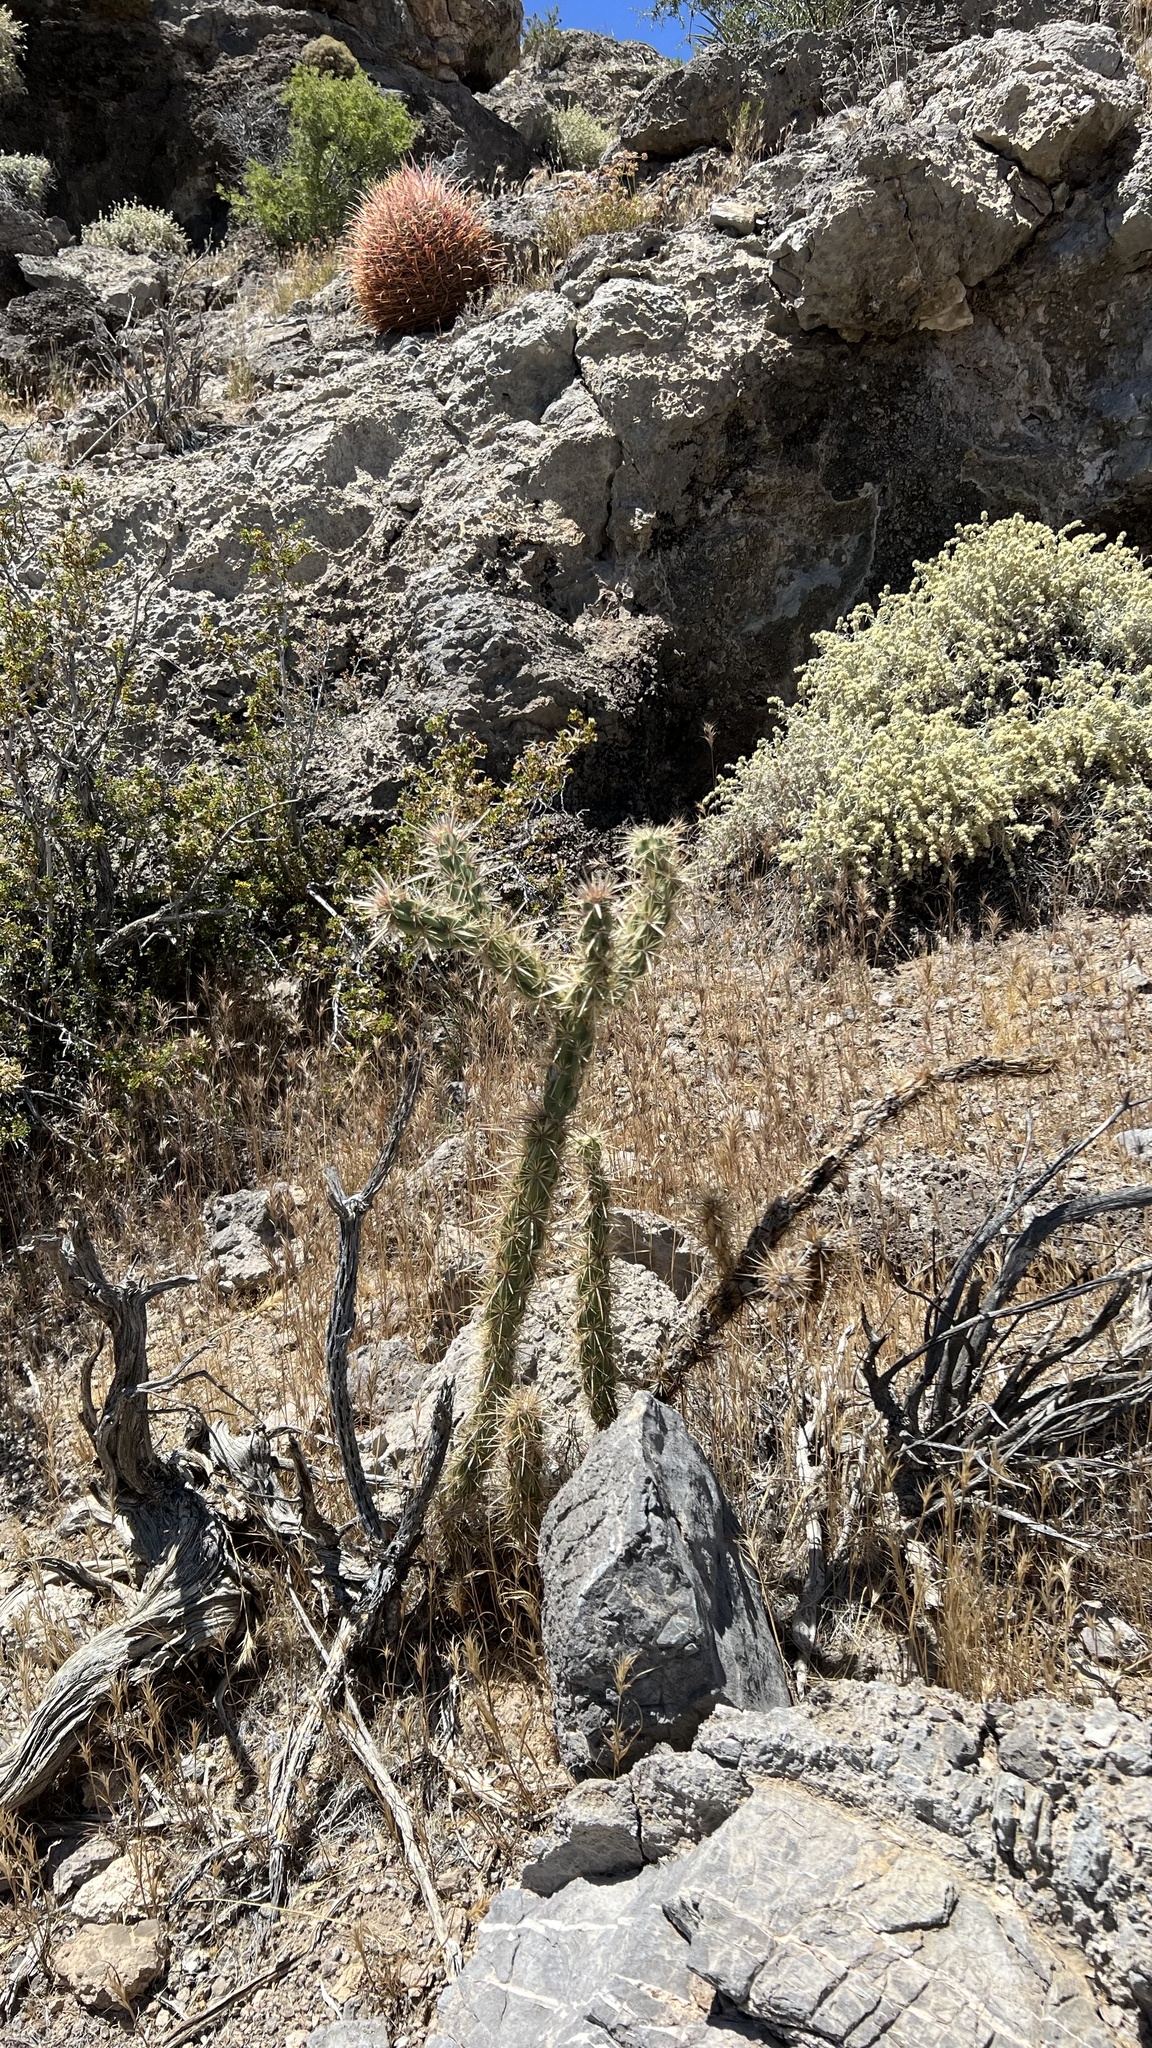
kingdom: Plantae
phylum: Tracheophyta
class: Magnoliopsida
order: Caryophyllales
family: Cactaceae
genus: Cylindropuntia
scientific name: Cylindropuntia acanthocarpa
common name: Buckhorn cholla
